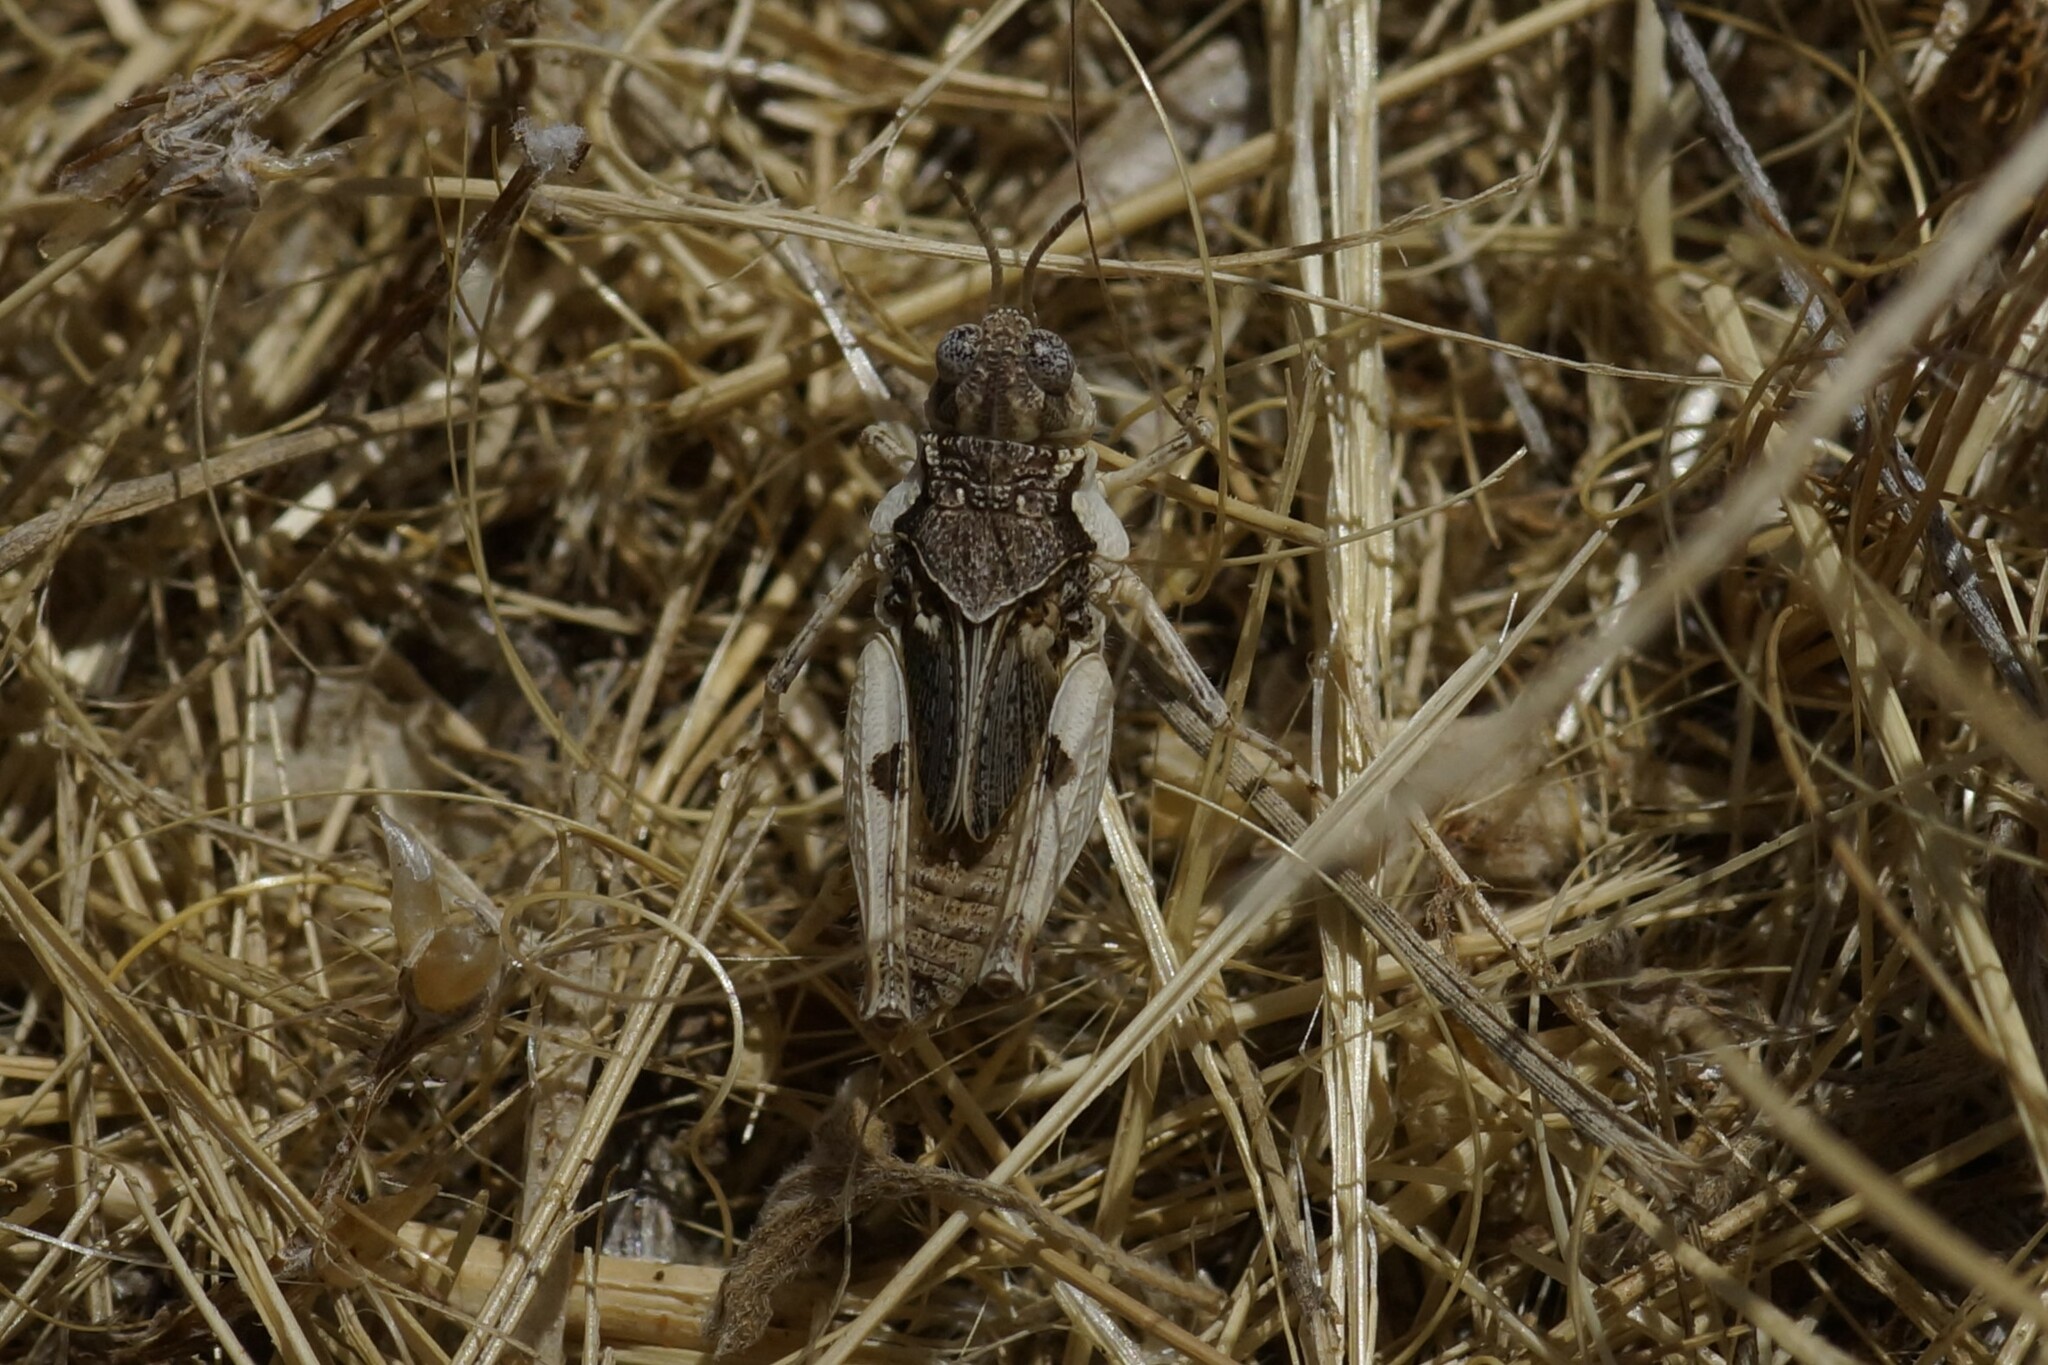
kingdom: Animalia
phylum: Arthropoda
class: Insecta
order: Orthoptera
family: Acrididae
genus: Pycnostictus
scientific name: Pycnostictus seriatus
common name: Common bandwing
